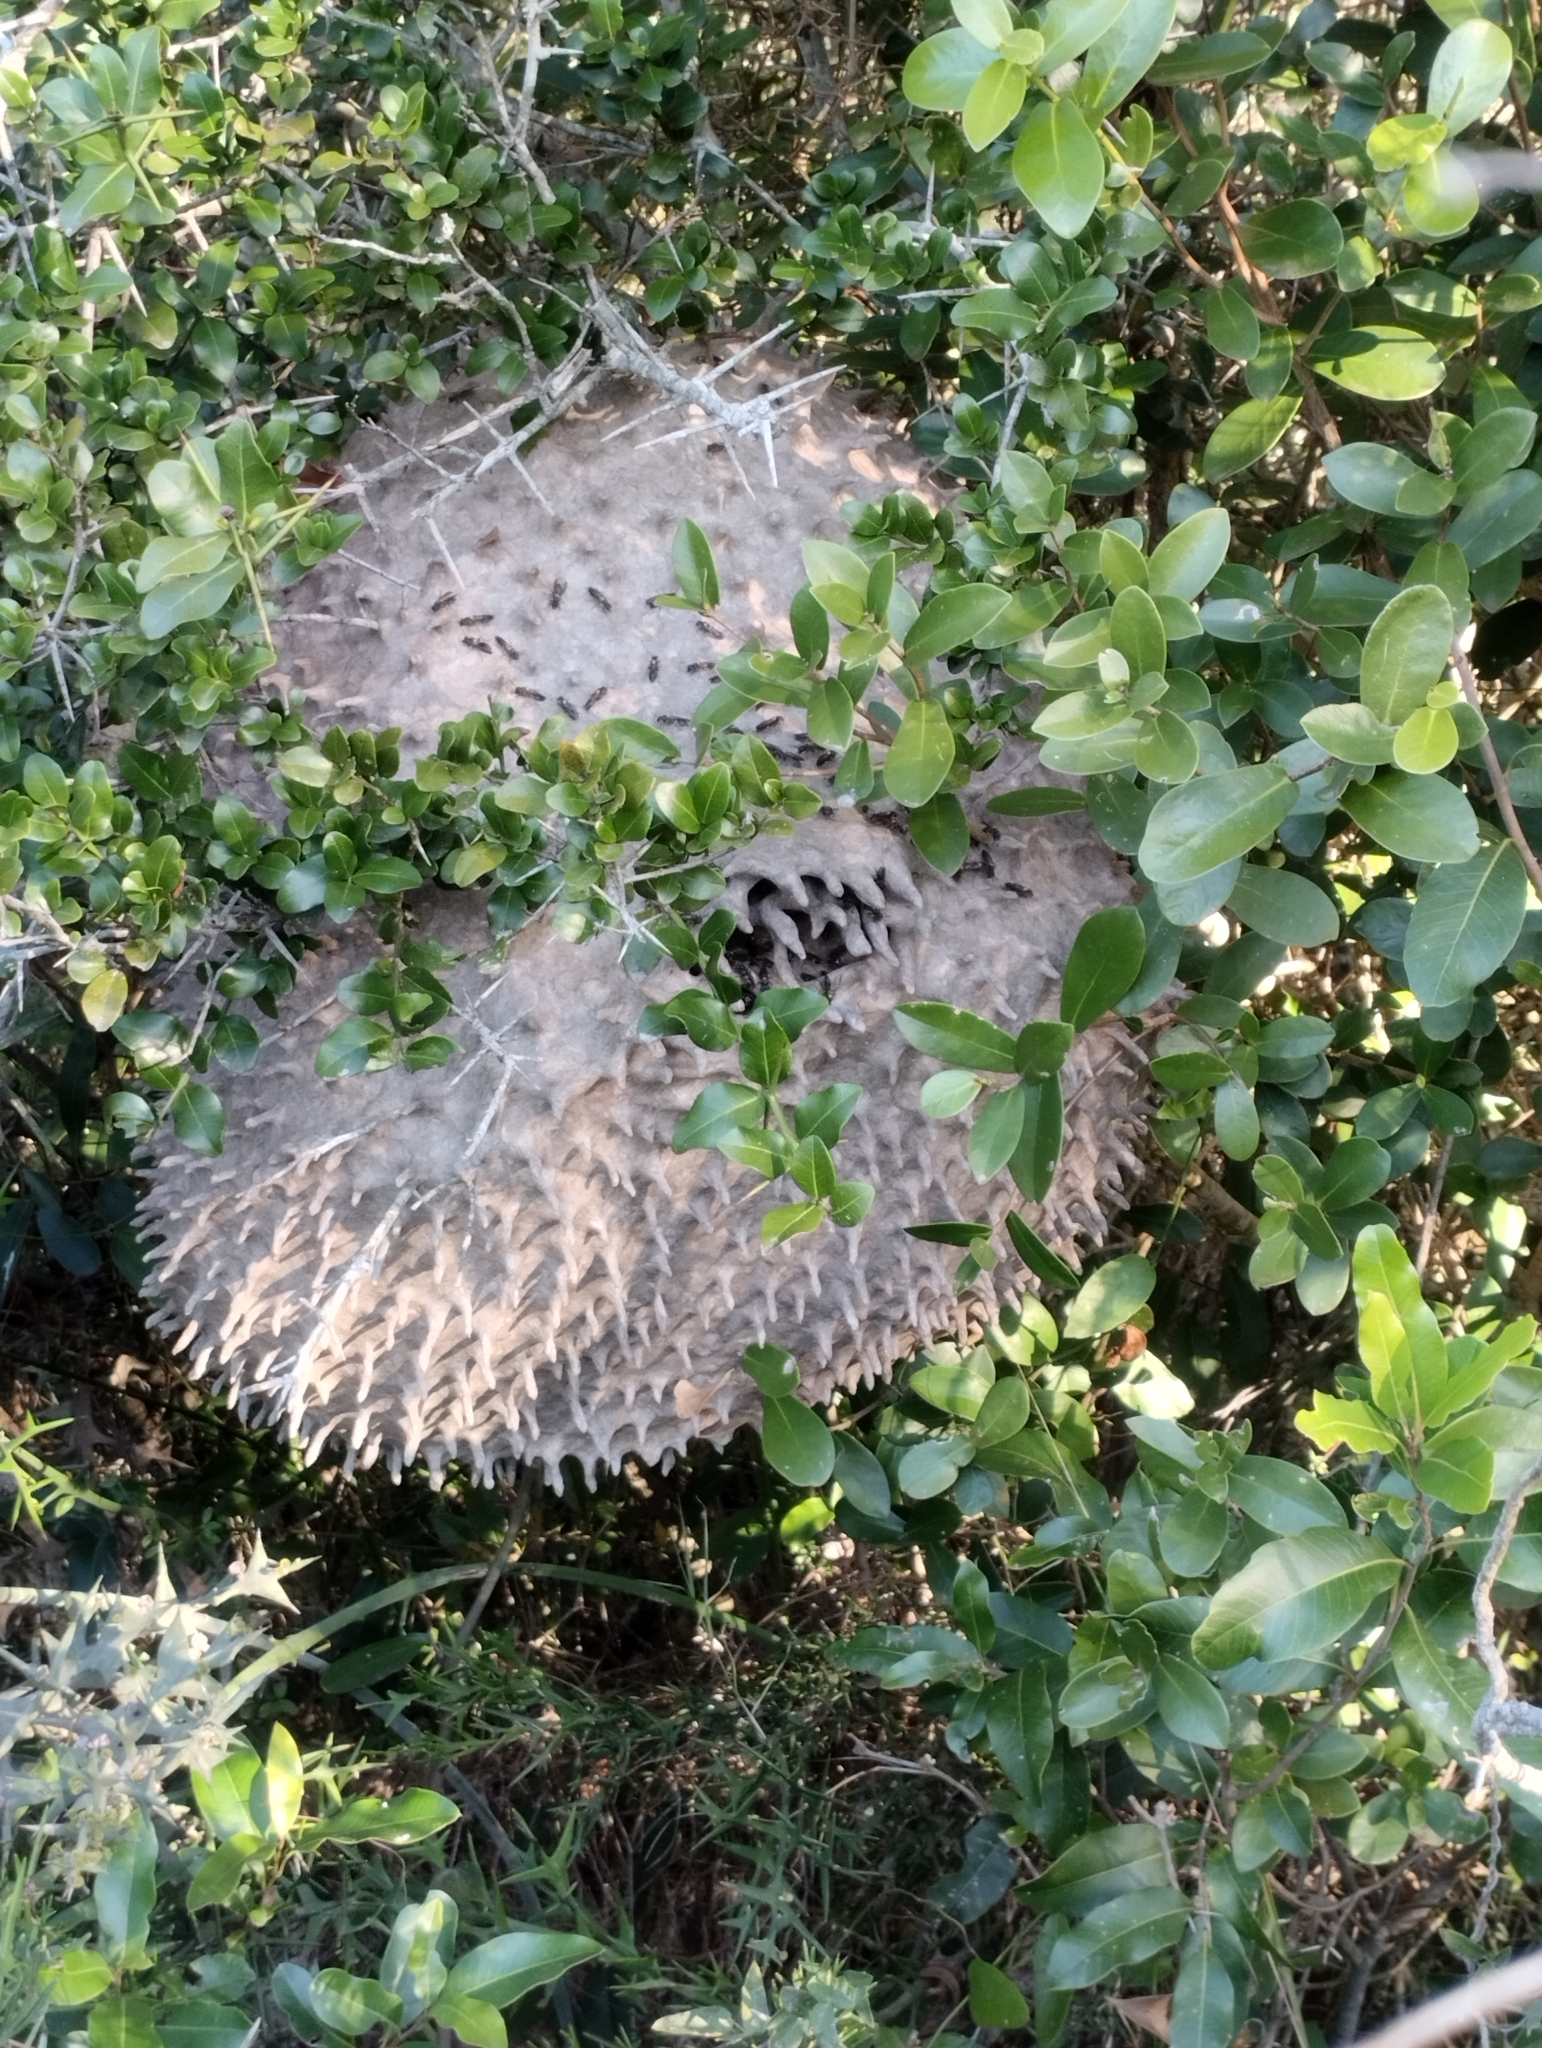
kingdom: Animalia
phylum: Arthropoda
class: Insecta
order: Hymenoptera
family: Eumenidae
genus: Polybia
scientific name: Polybia scutellaris
